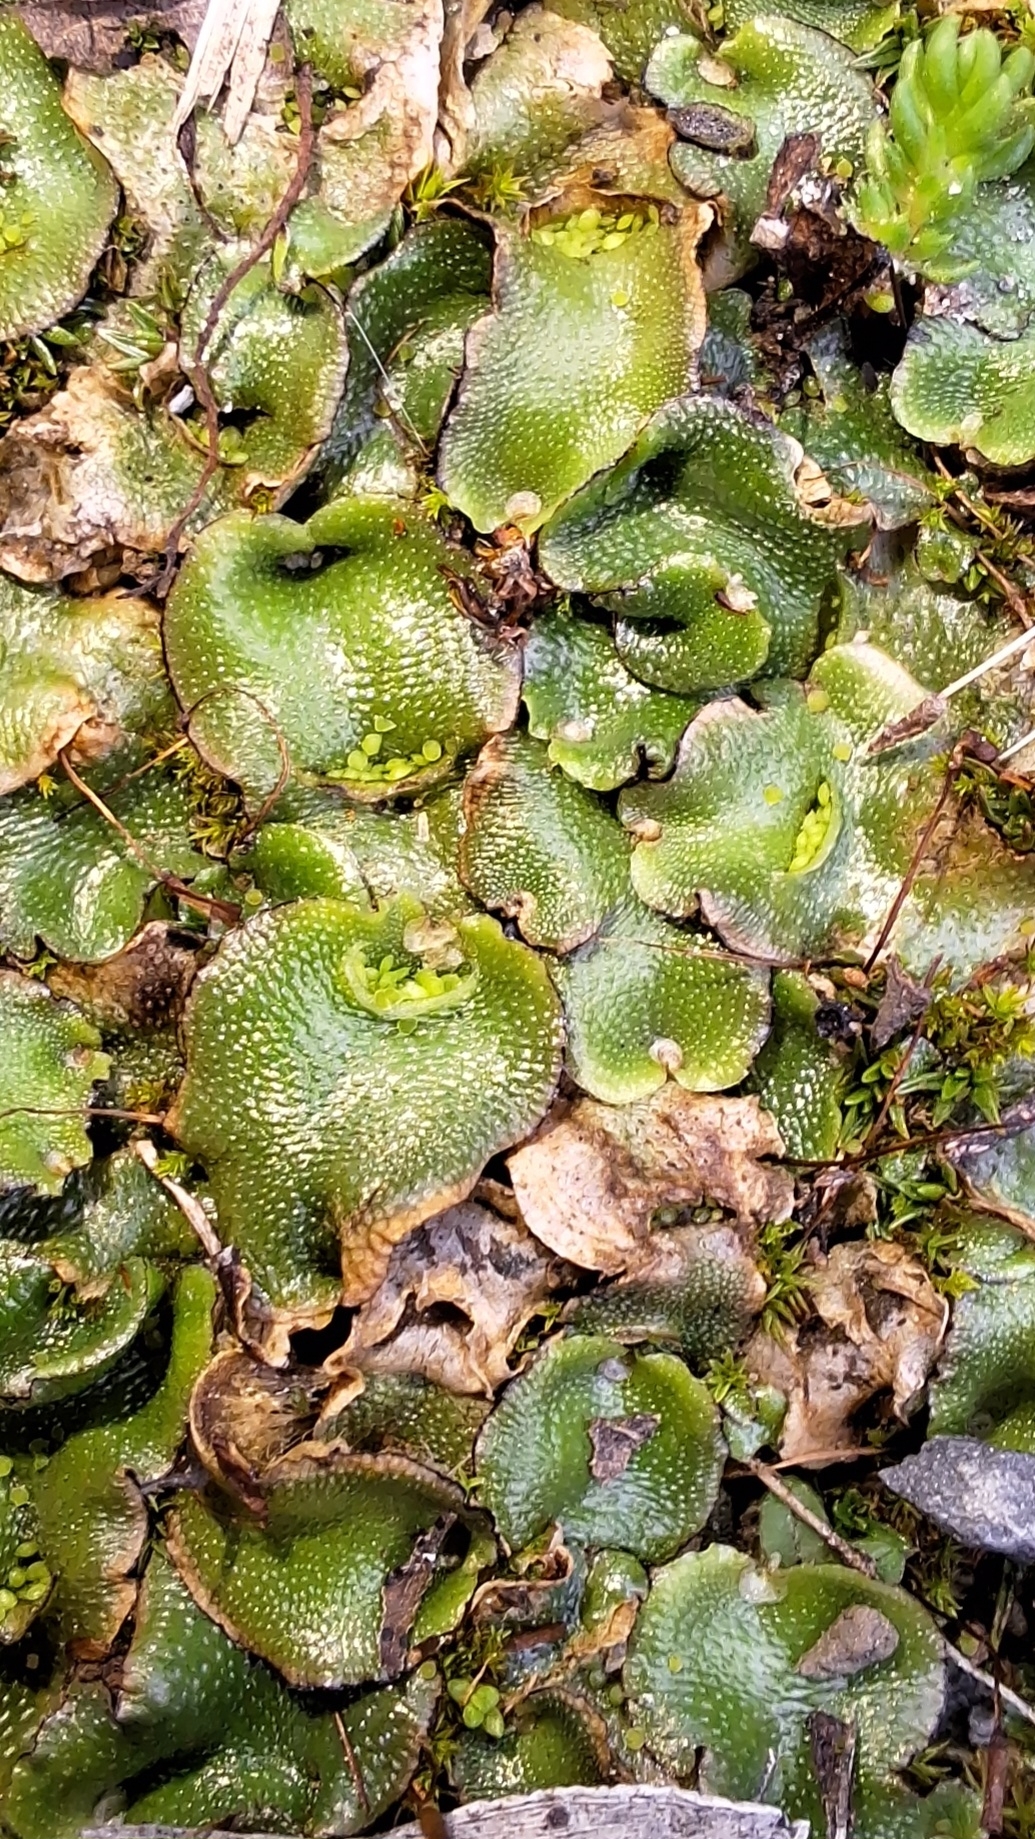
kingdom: Plantae
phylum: Marchantiophyta
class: Marchantiopsida
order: Lunulariales
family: Lunulariaceae
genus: Lunularia
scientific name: Lunularia cruciata
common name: Crescent-cup liverwort
